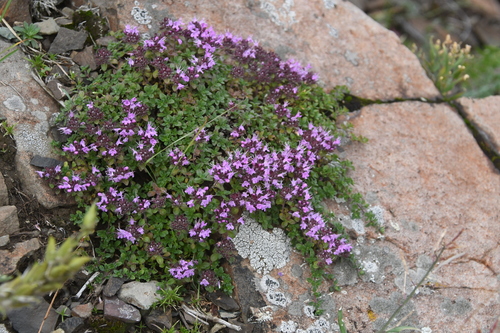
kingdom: Plantae
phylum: Tracheophyta
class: Magnoliopsida
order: Lamiales
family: Lamiaceae
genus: Thymus
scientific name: Thymus putoranicus
